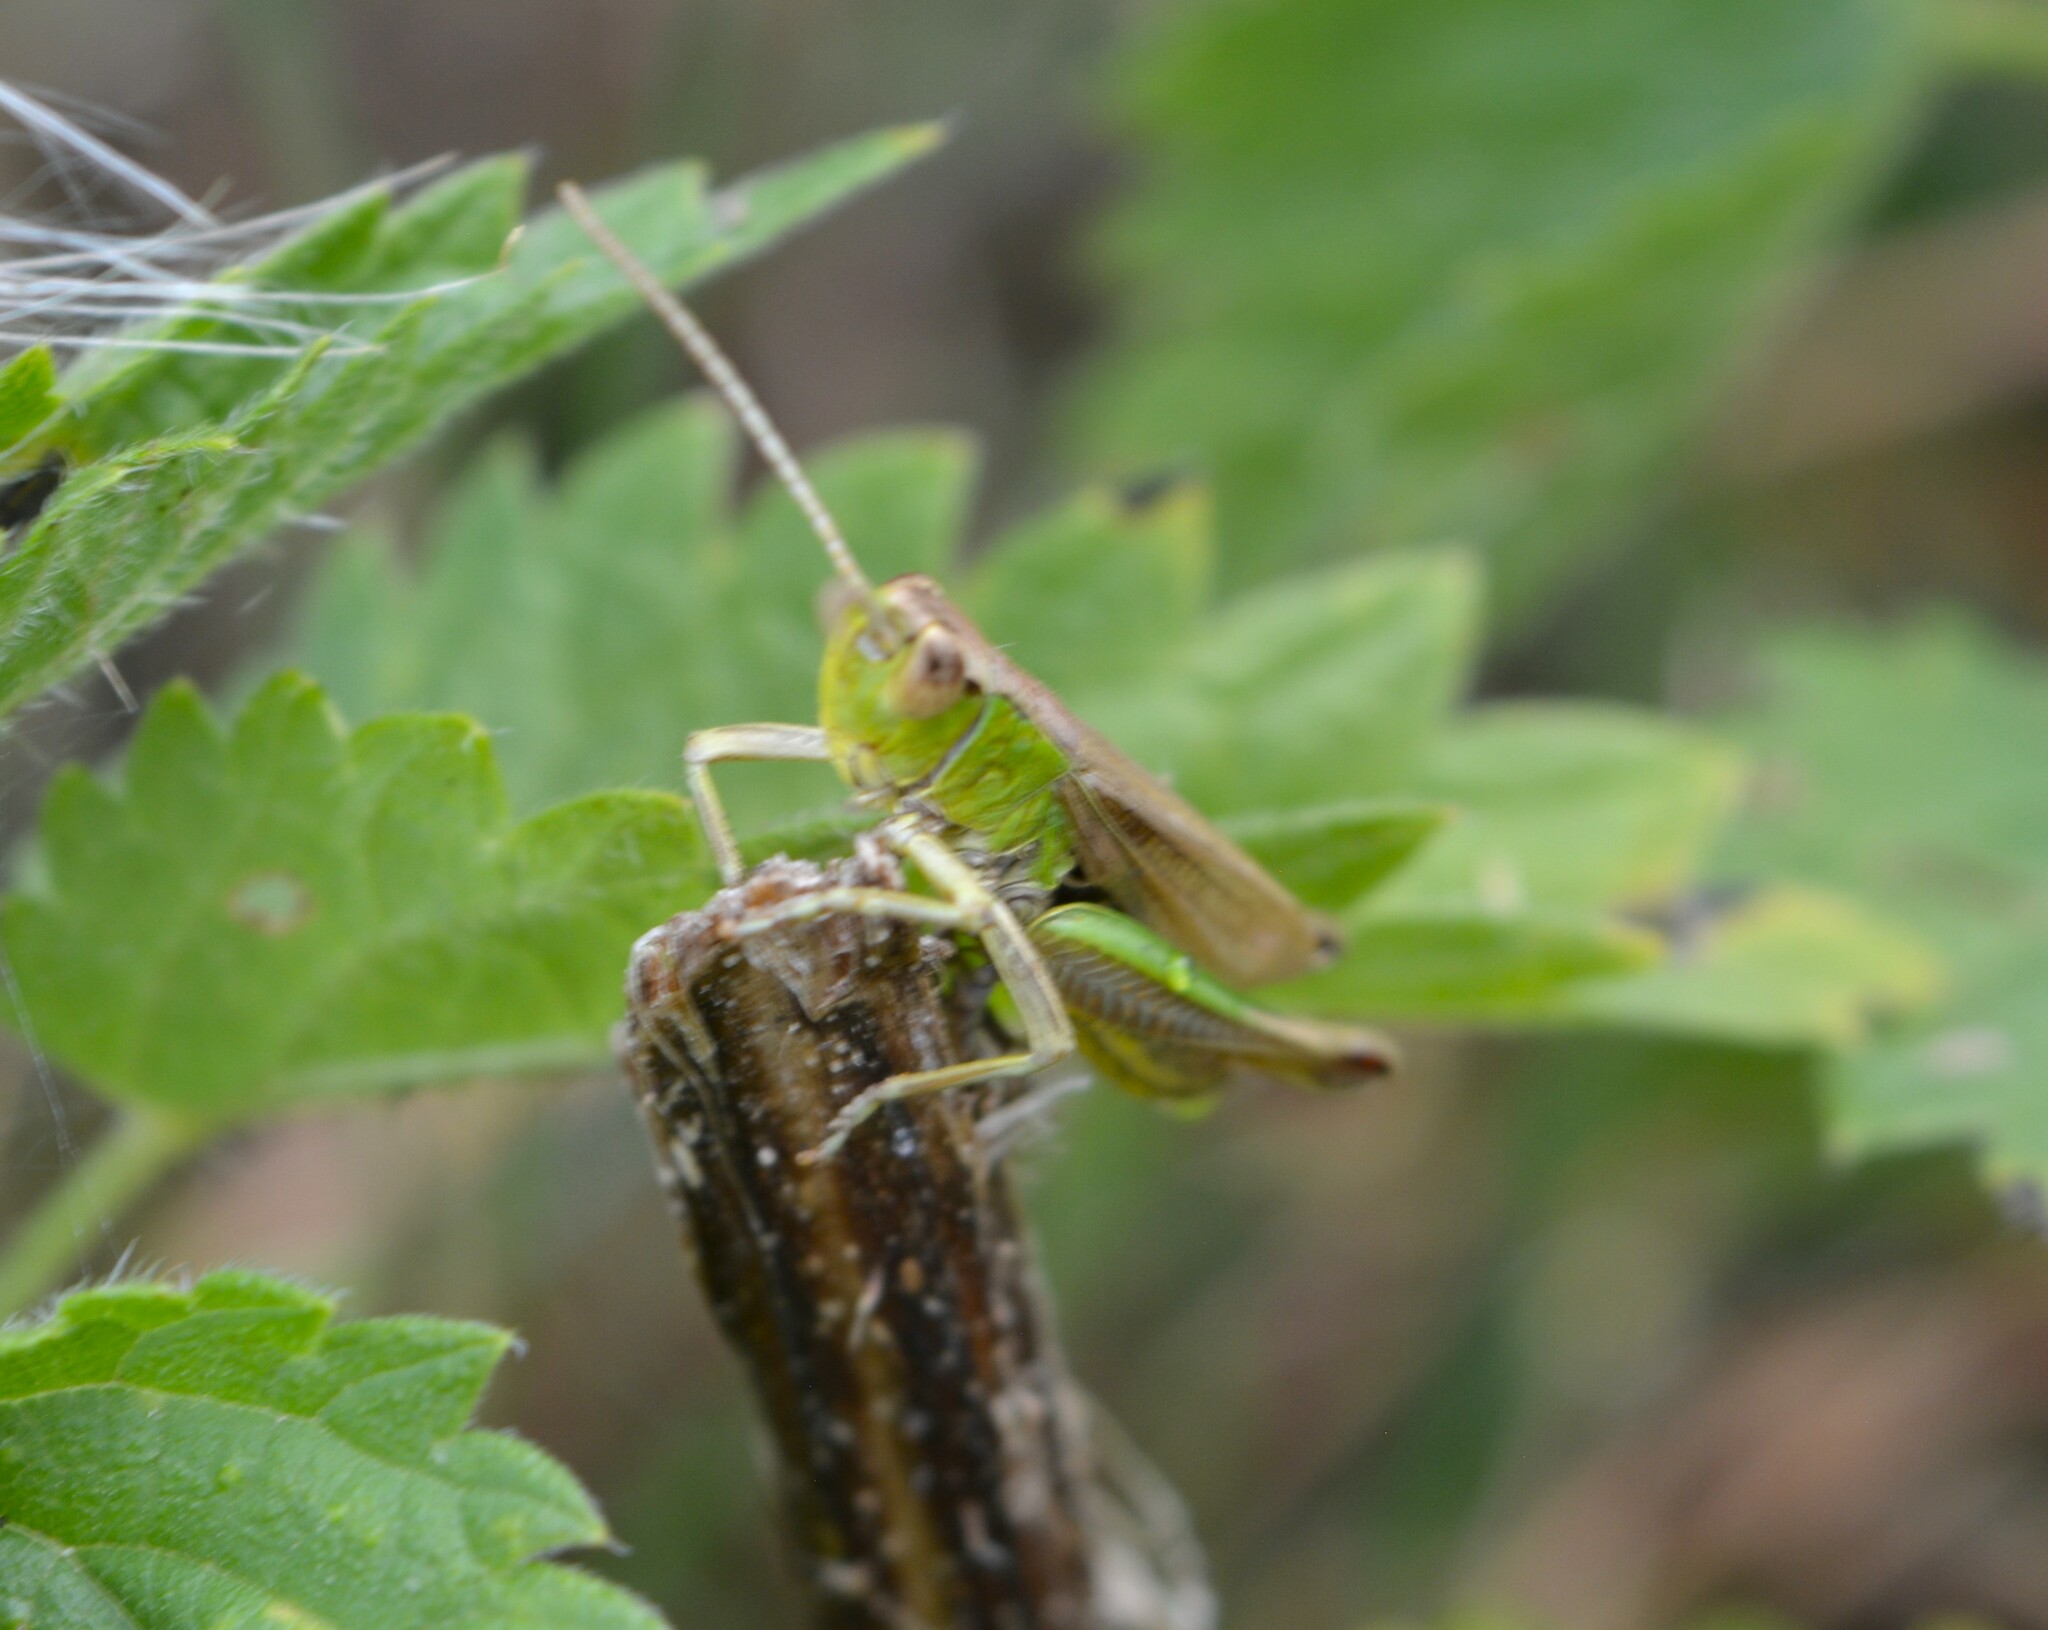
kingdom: Animalia
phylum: Arthropoda
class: Insecta
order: Orthoptera
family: Acrididae
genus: Pseudochorthippus
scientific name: Pseudochorthippus parallelus
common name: Meadow grasshopper
